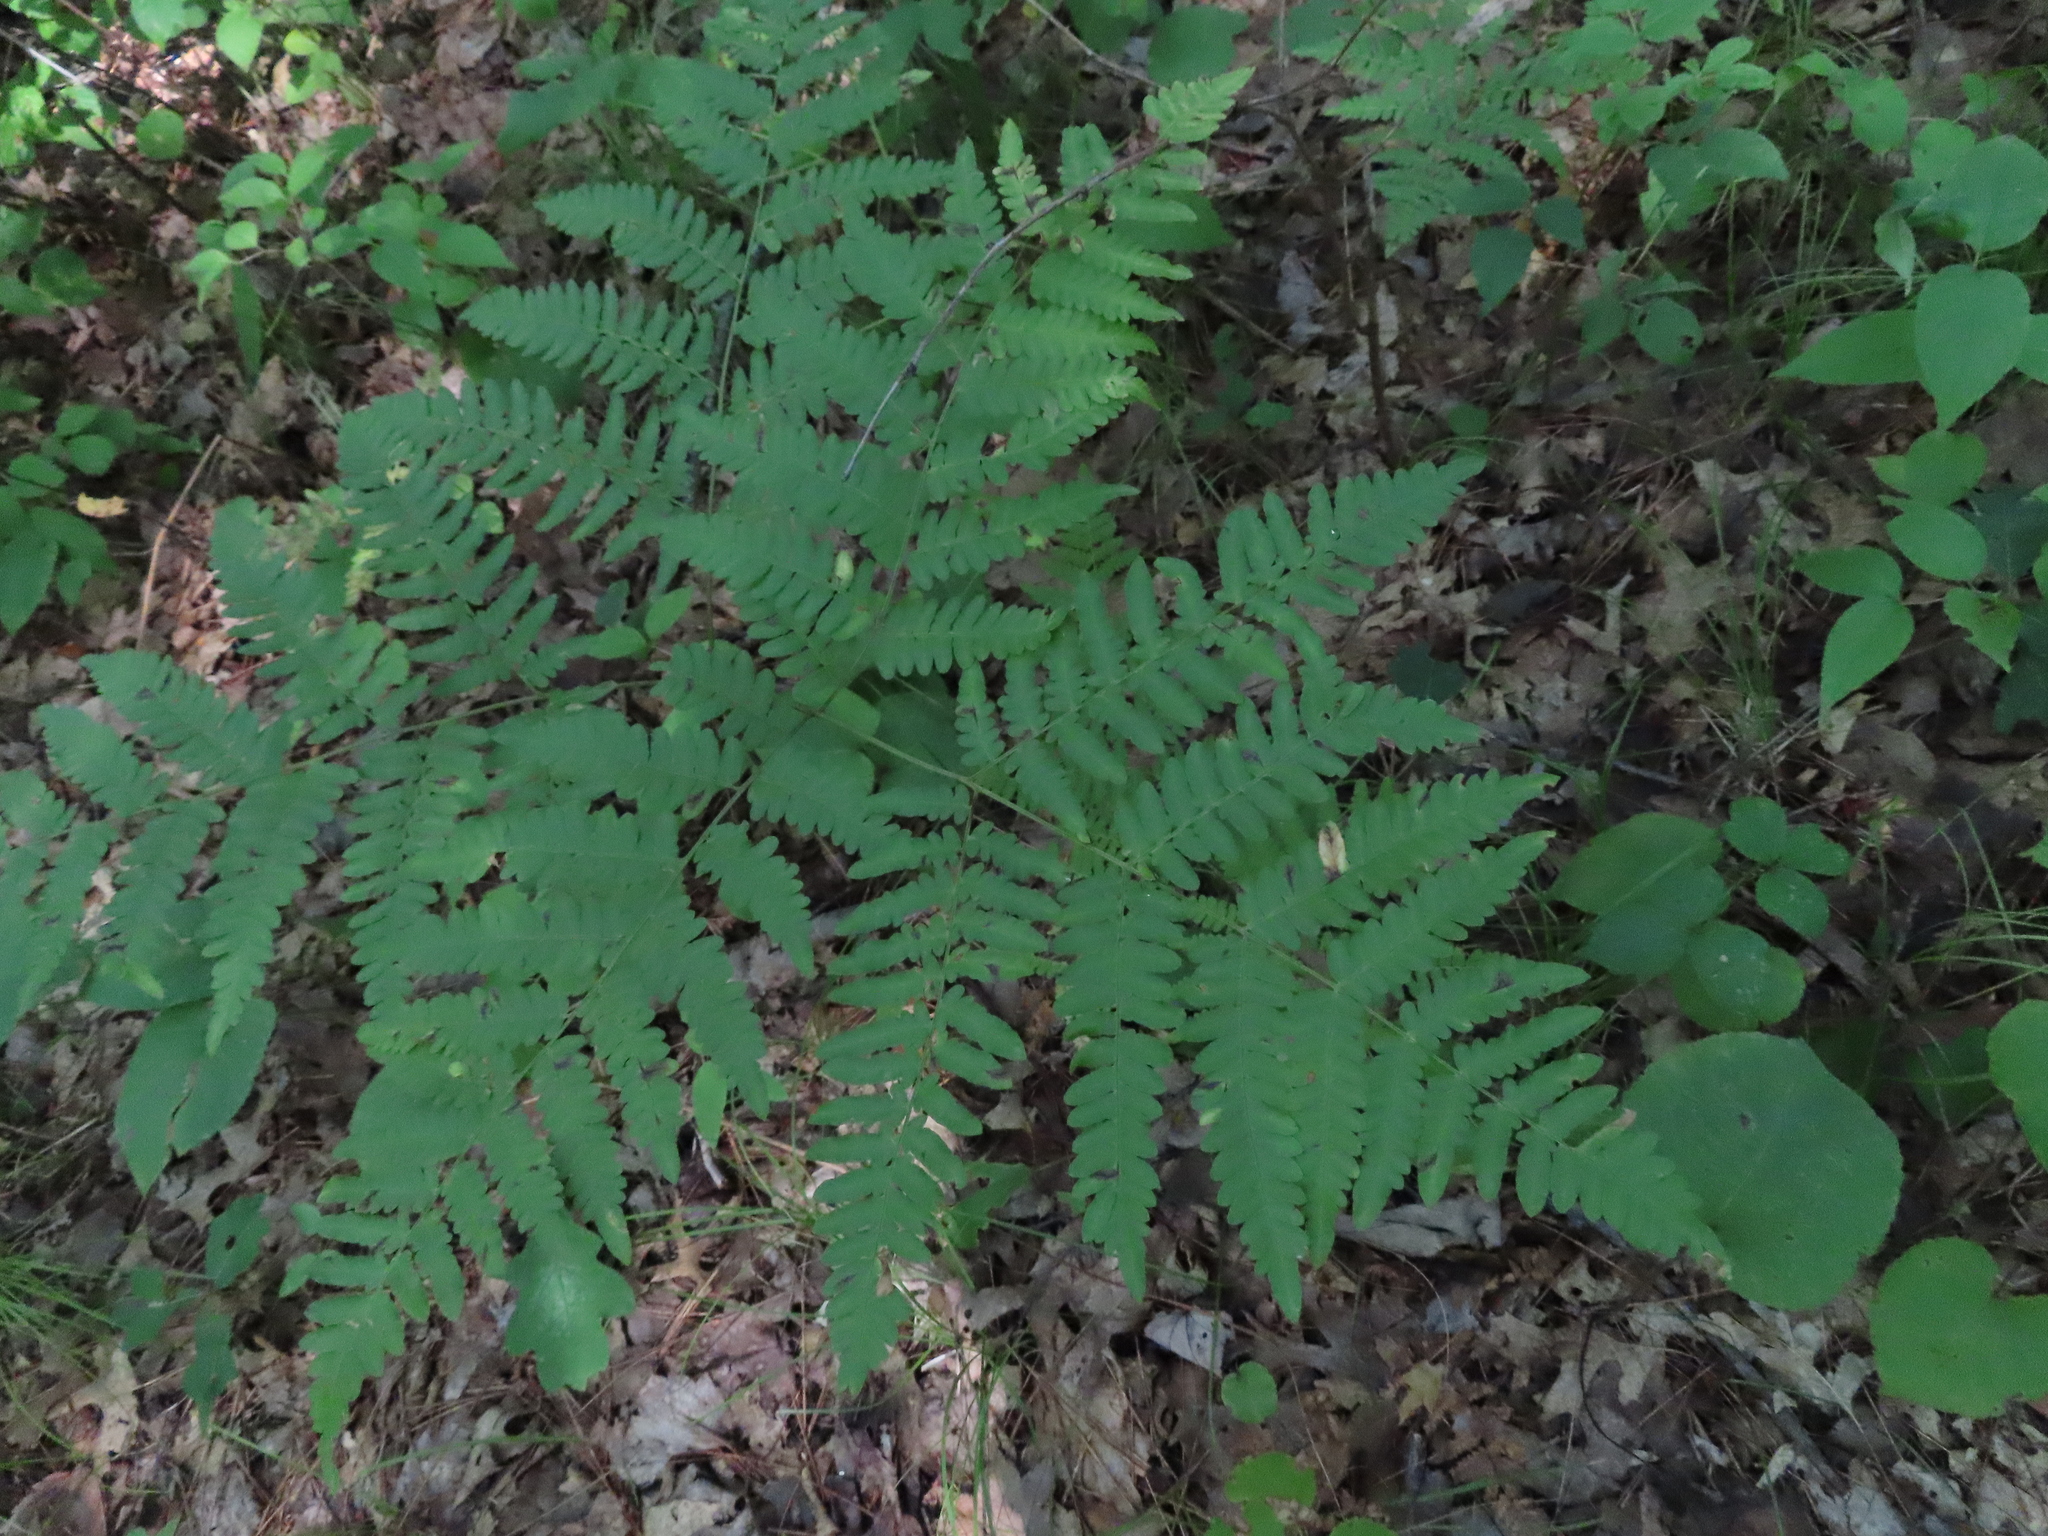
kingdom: Plantae
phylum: Tracheophyta
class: Polypodiopsida
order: Polypodiales
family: Dennstaedtiaceae
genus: Pteridium
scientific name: Pteridium aquilinum
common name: Bracken
